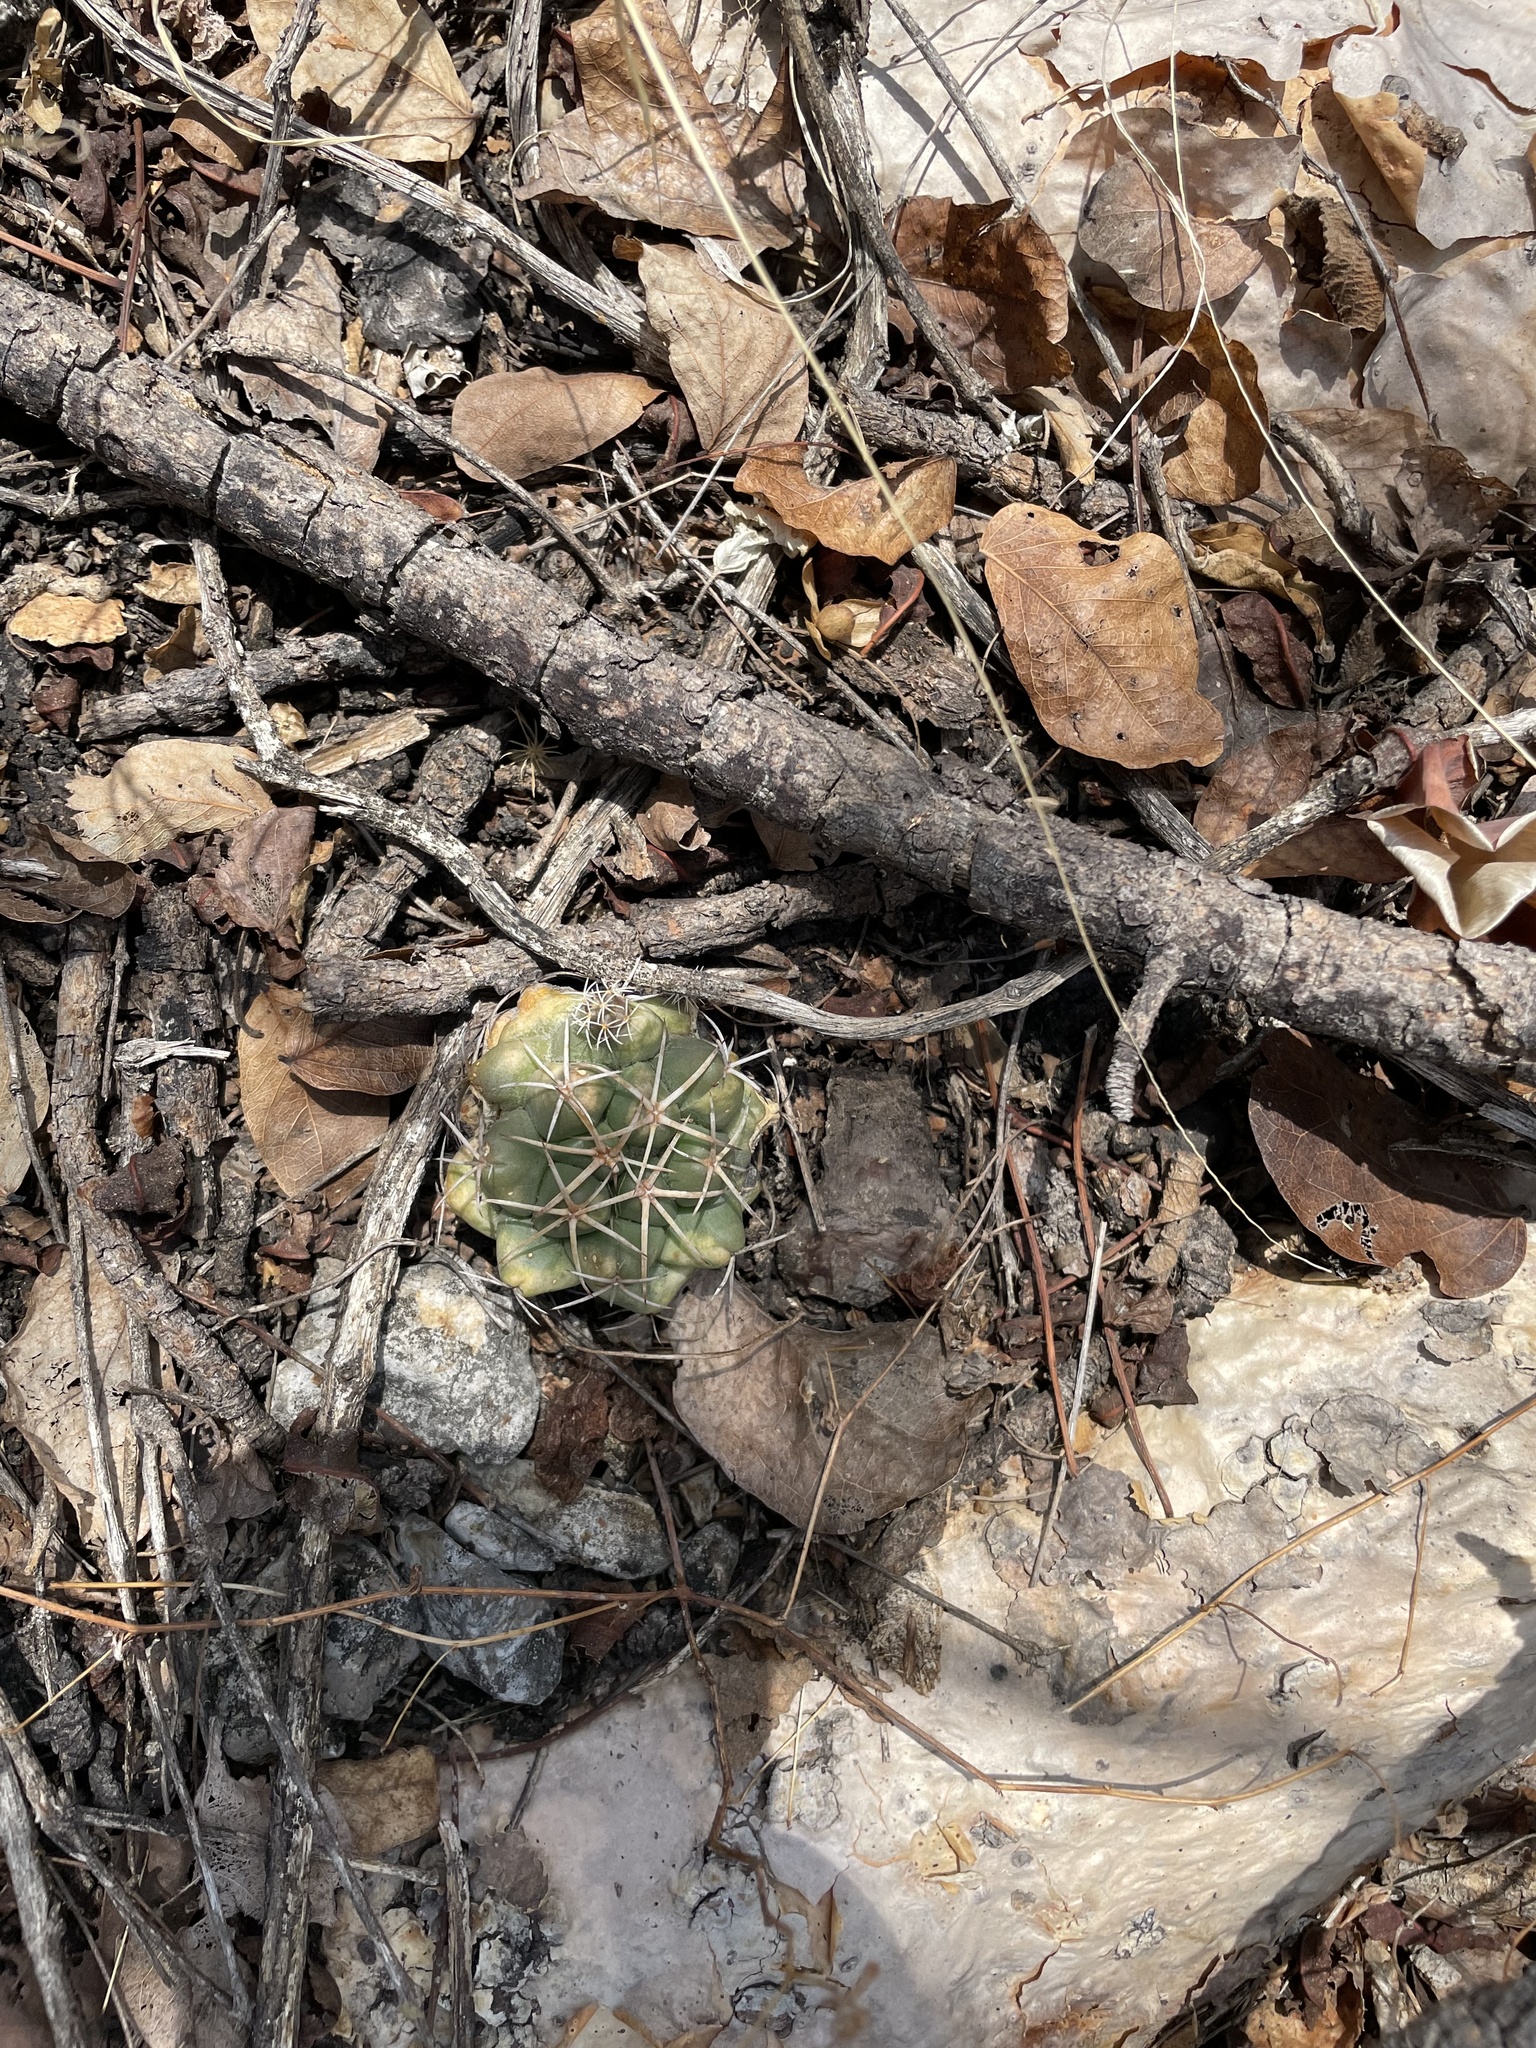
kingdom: Plantae
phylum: Tracheophyta
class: Magnoliopsida
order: Caryophyllales
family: Cactaceae
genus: Coryphantha
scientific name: Coryphantha elephantidens
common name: Elephant's tooth
